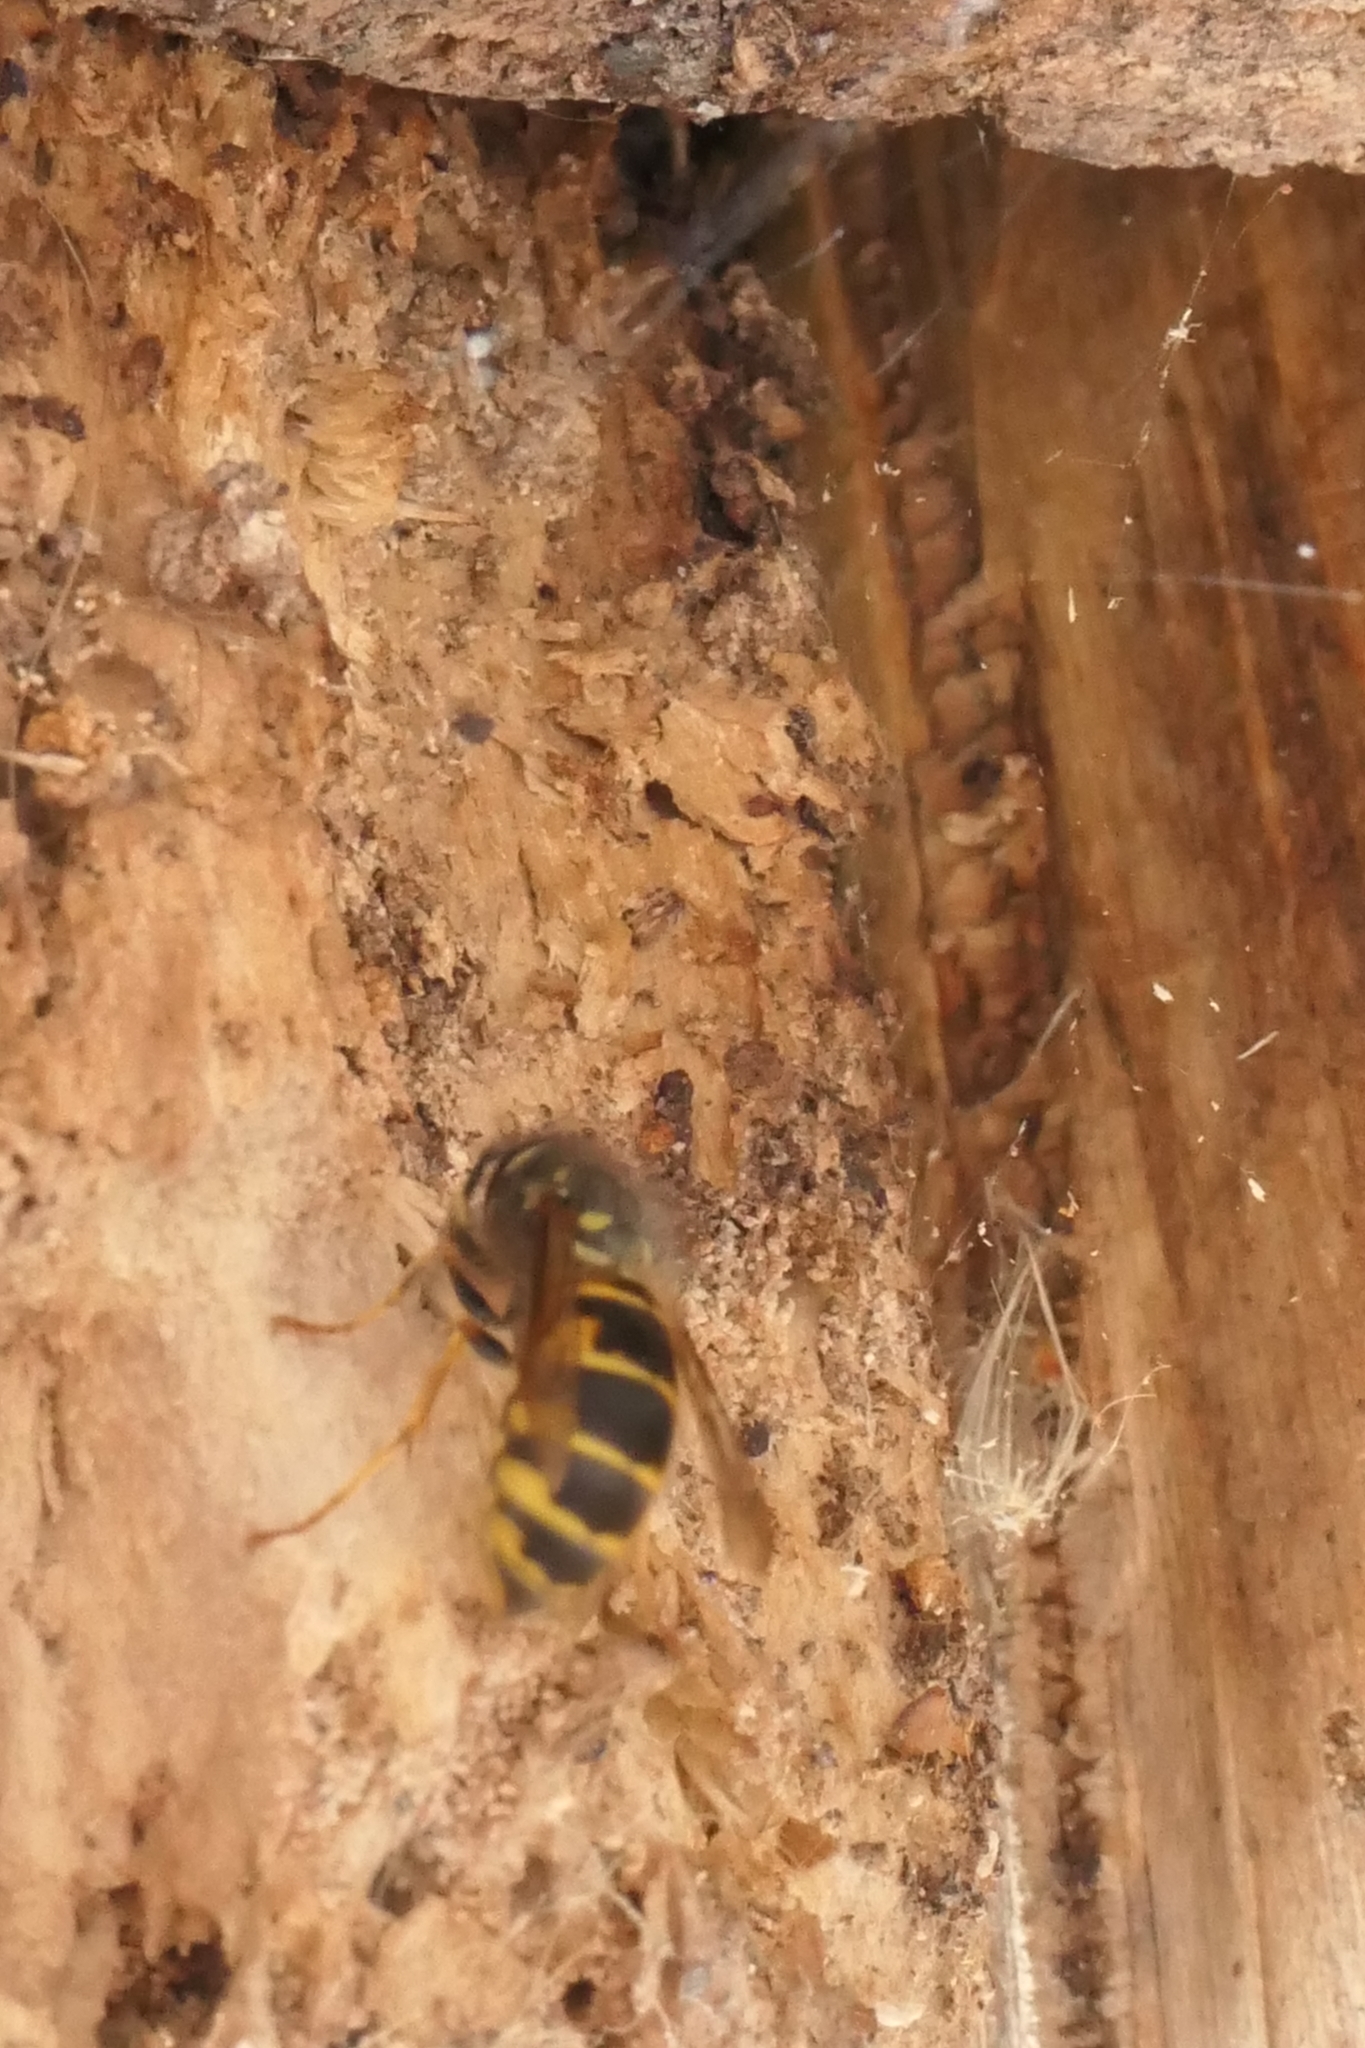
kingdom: Animalia
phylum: Arthropoda
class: Insecta
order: Hymenoptera
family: Vespidae
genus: Vespula
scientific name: Vespula vulgaris
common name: Common wasp
